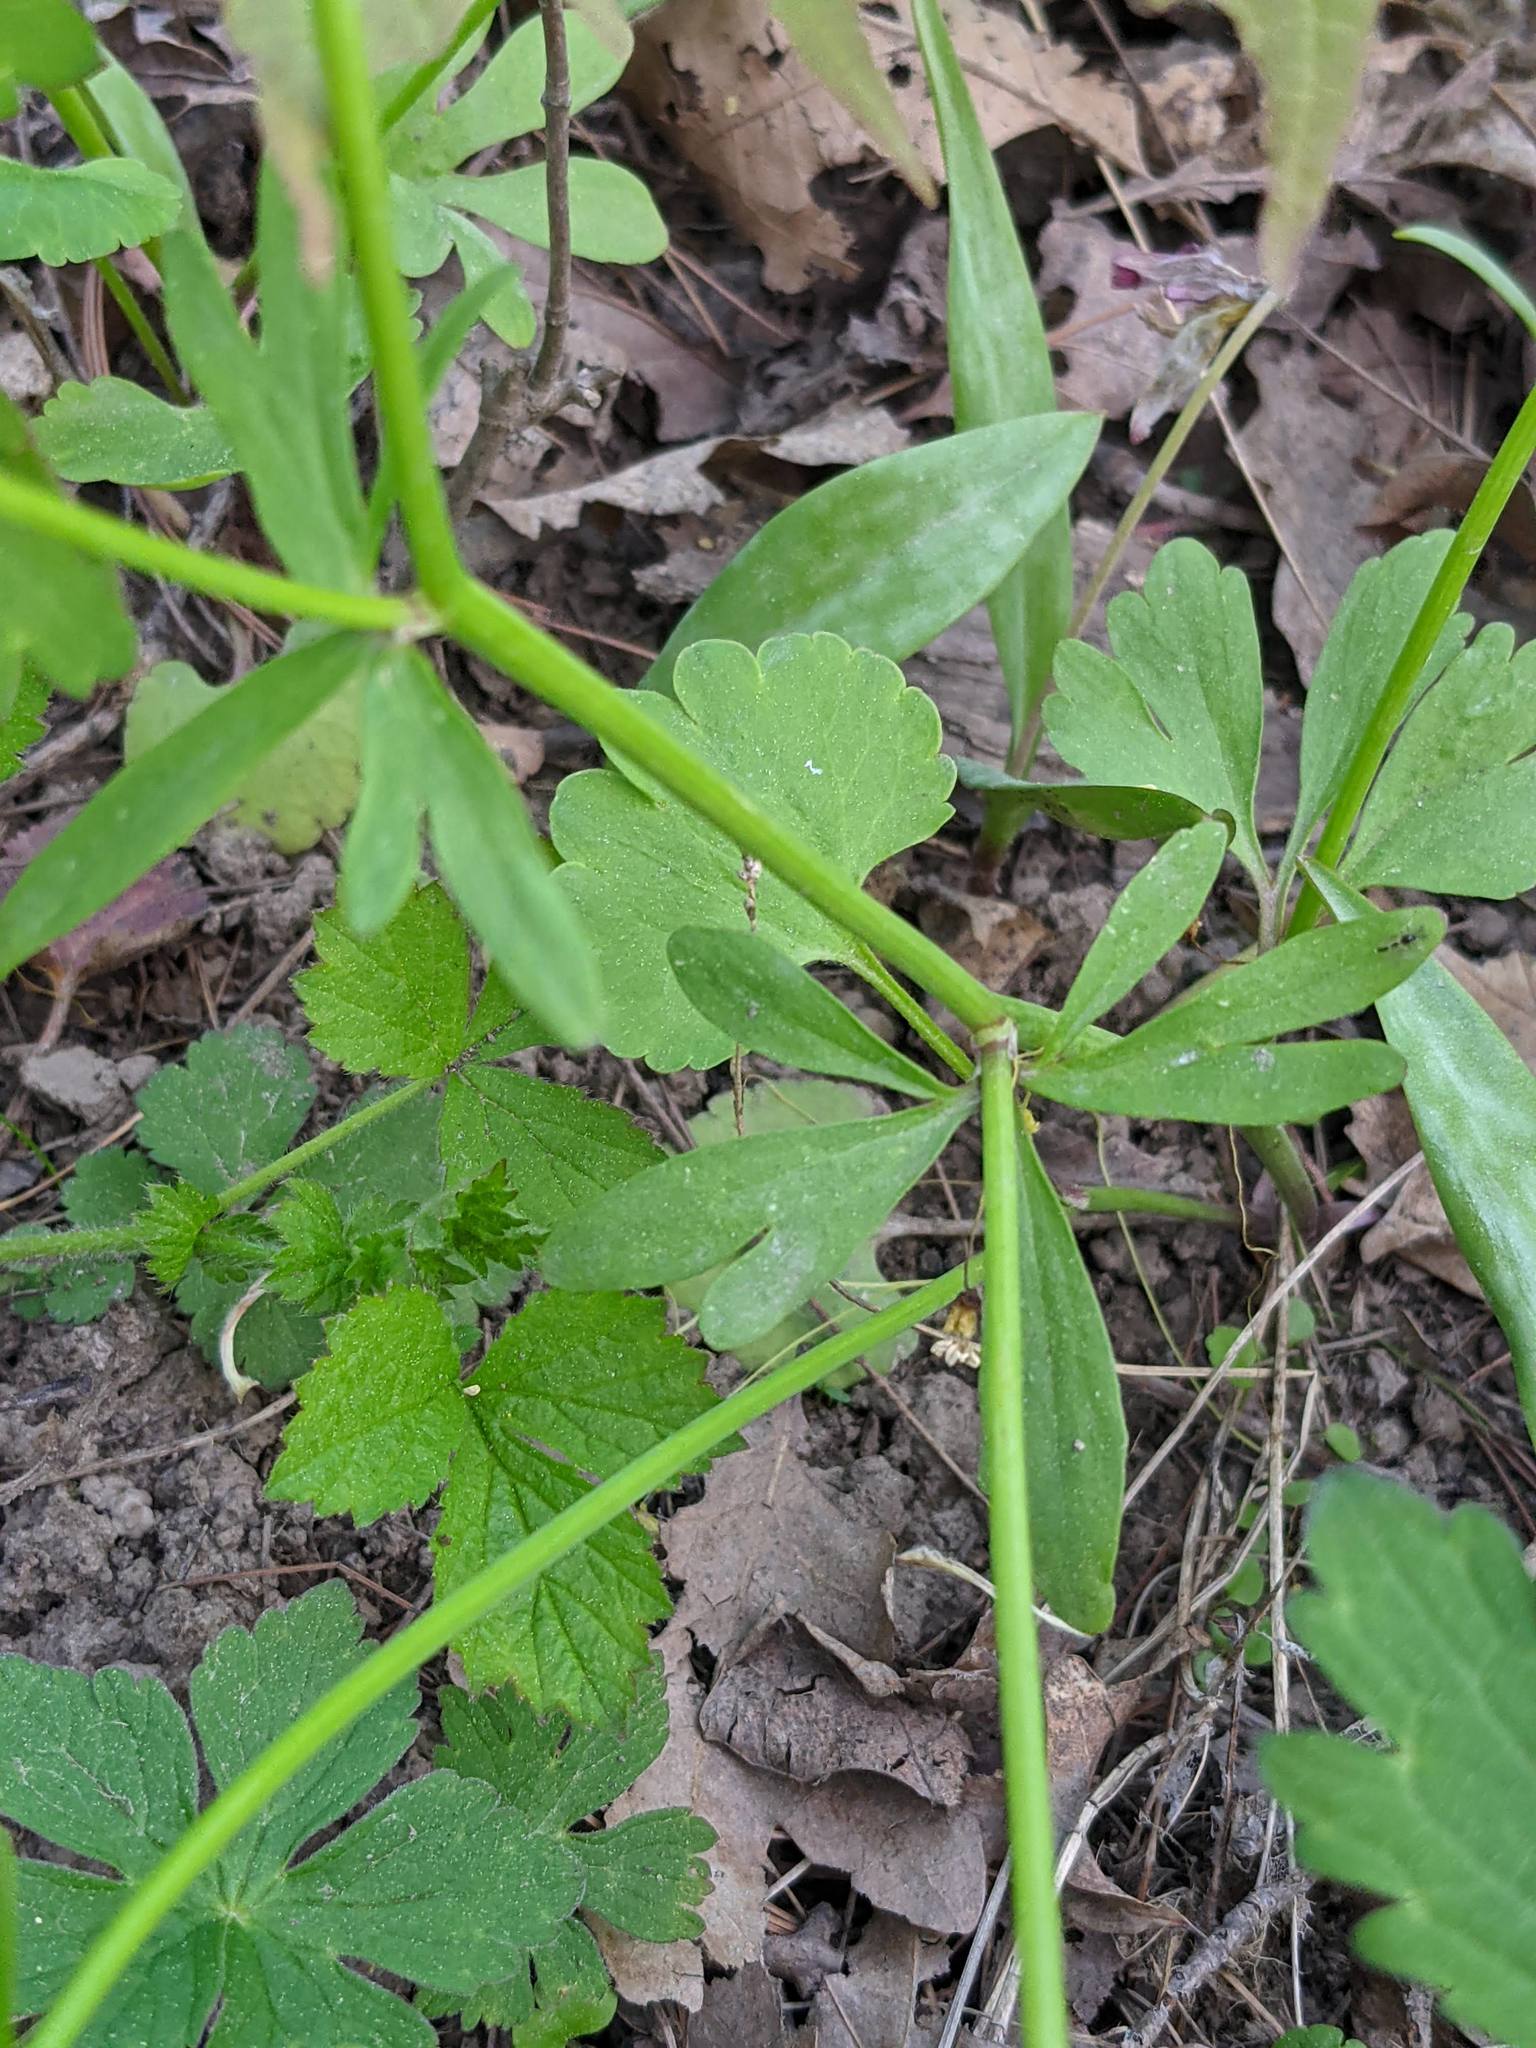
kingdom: Plantae
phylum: Tracheophyta
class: Magnoliopsida
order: Ranunculales
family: Ranunculaceae
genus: Ranunculus
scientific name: Ranunculus abortivus
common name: Early wood buttercup
